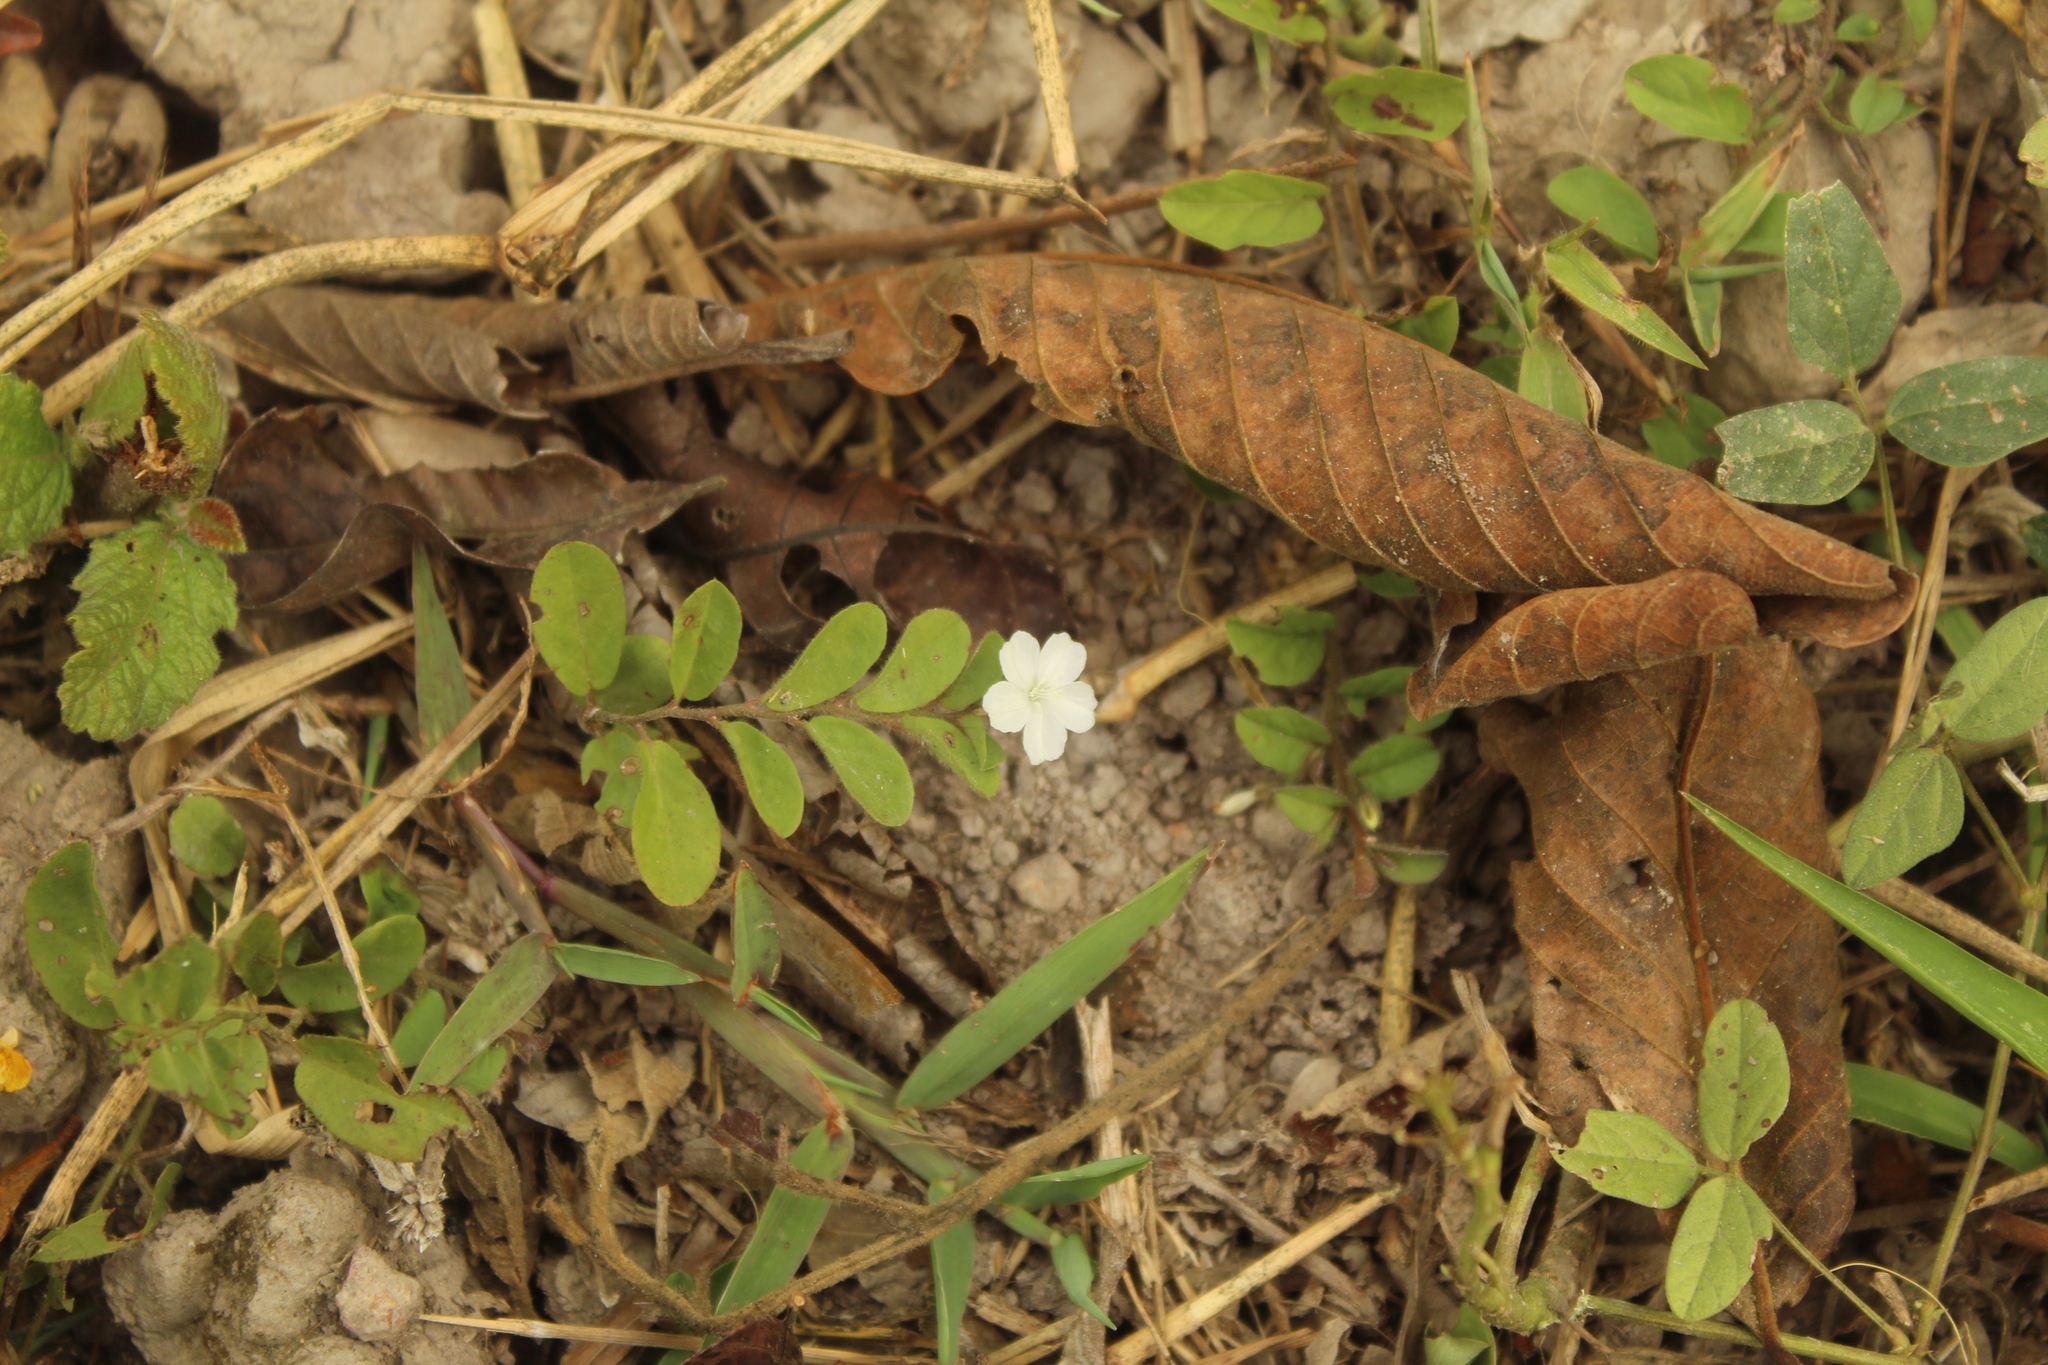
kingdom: Plantae
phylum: Tracheophyta
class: Magnoliopsida
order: Solanales
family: Convolvulaceae
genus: Evolvulus
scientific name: Evolvulus nummularius
